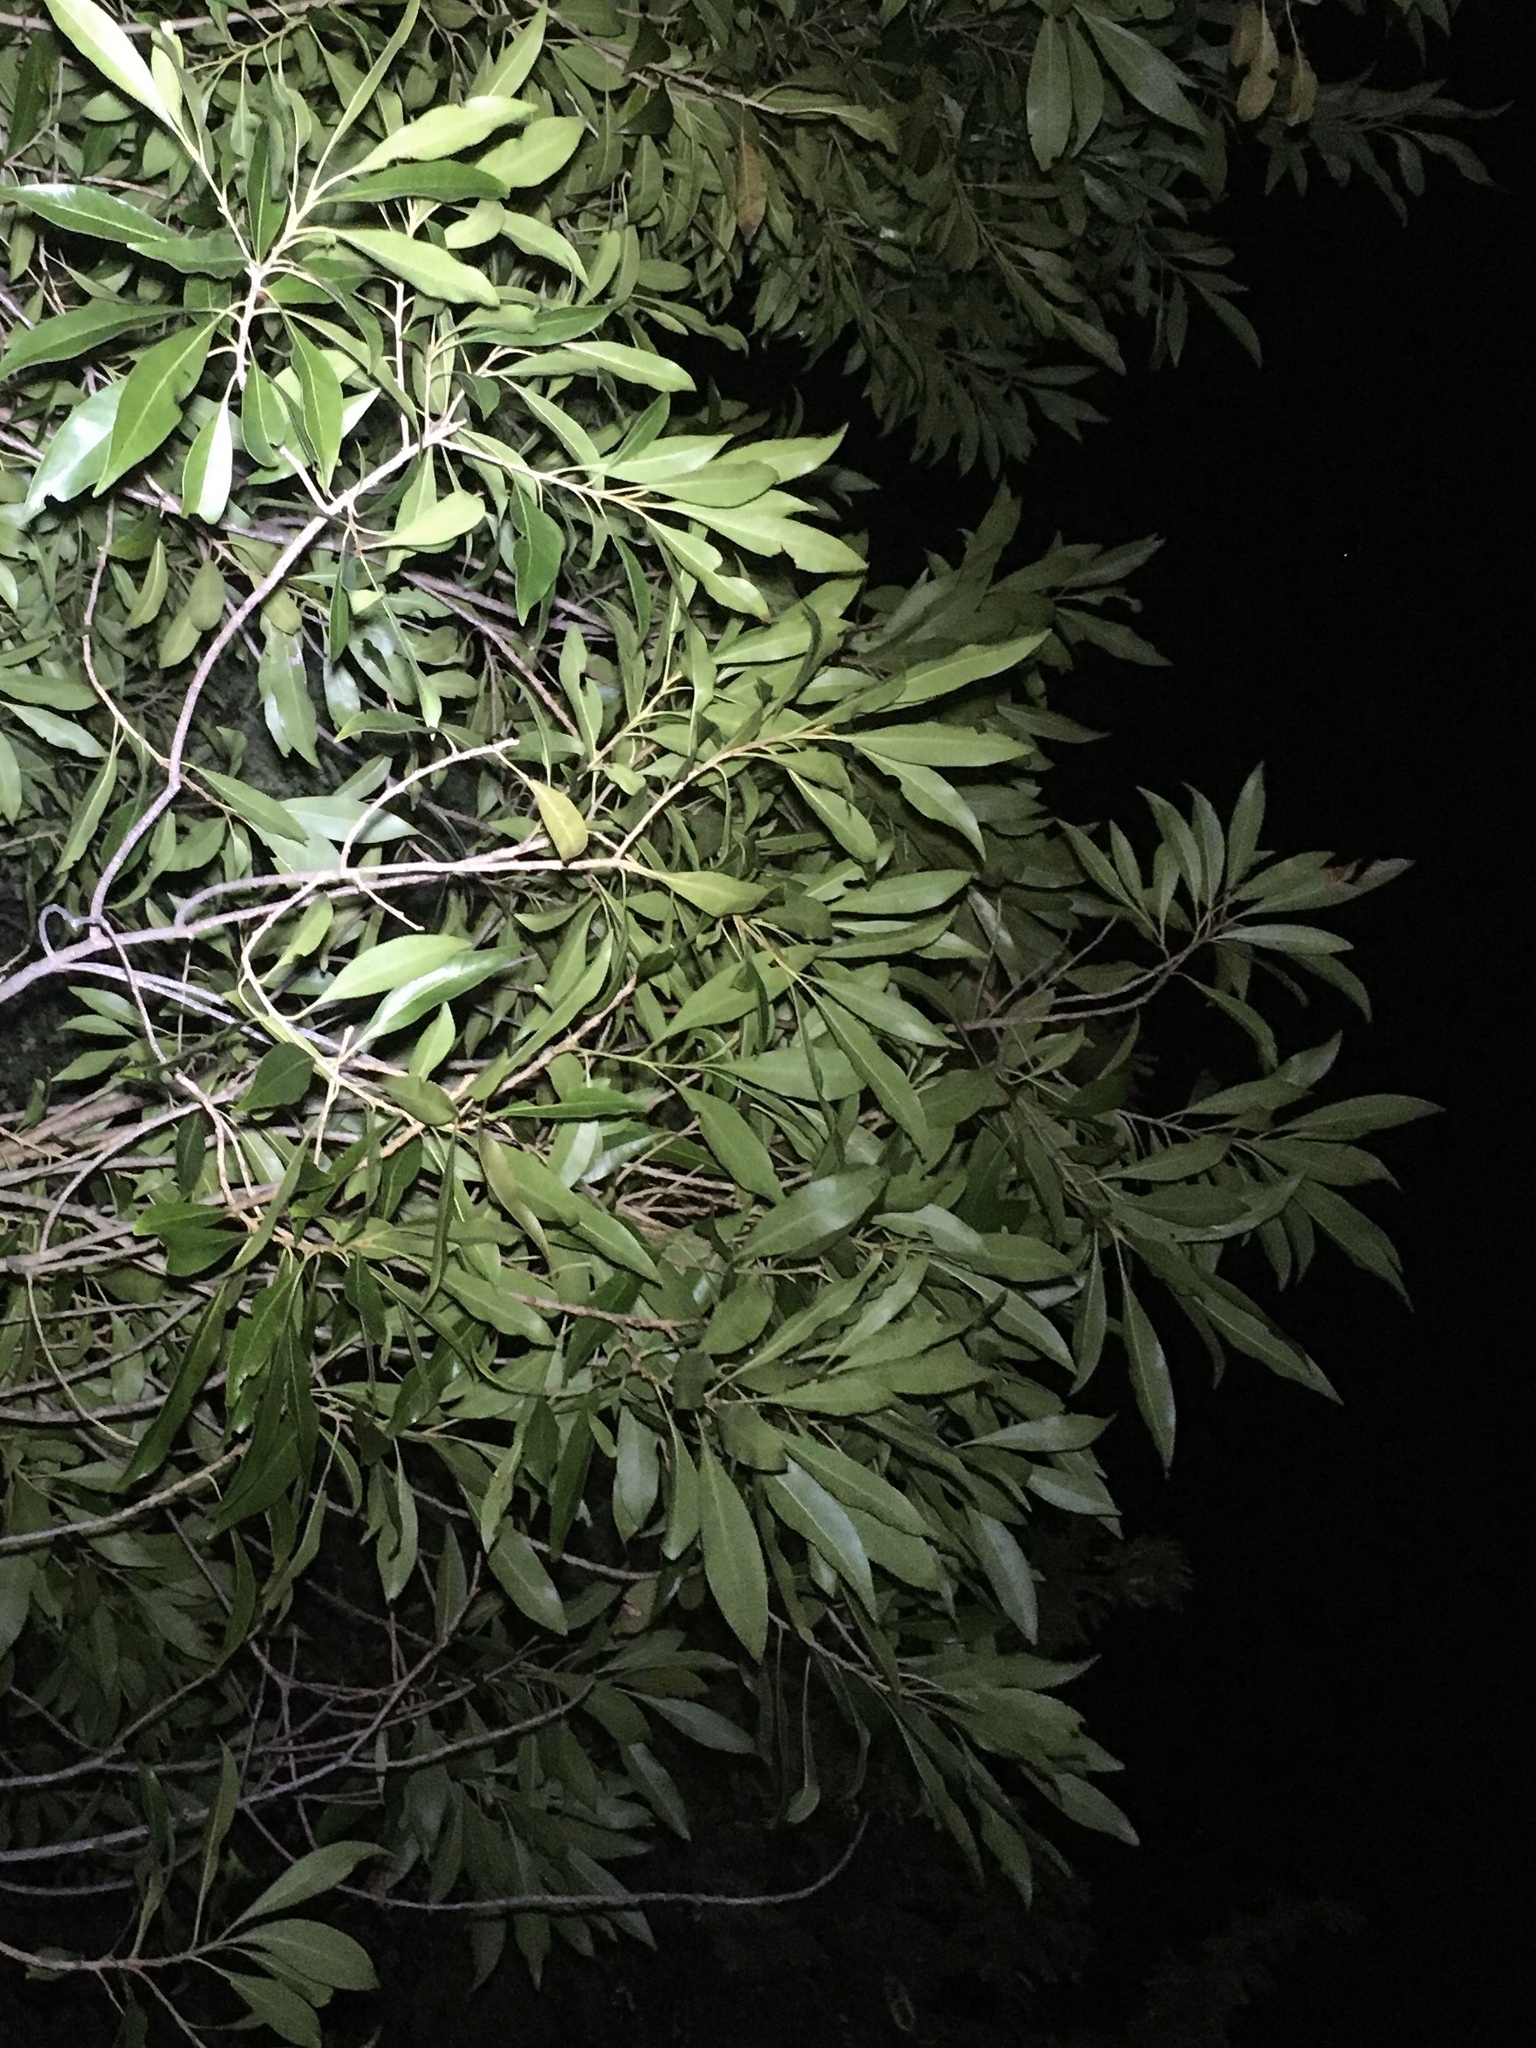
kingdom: Plantae
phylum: Tracheophyta
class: Magnoliopsida
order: Ericales
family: Sapotaceae
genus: Sideroxylon
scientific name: Sideroxylon salicifolium
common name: White bully
